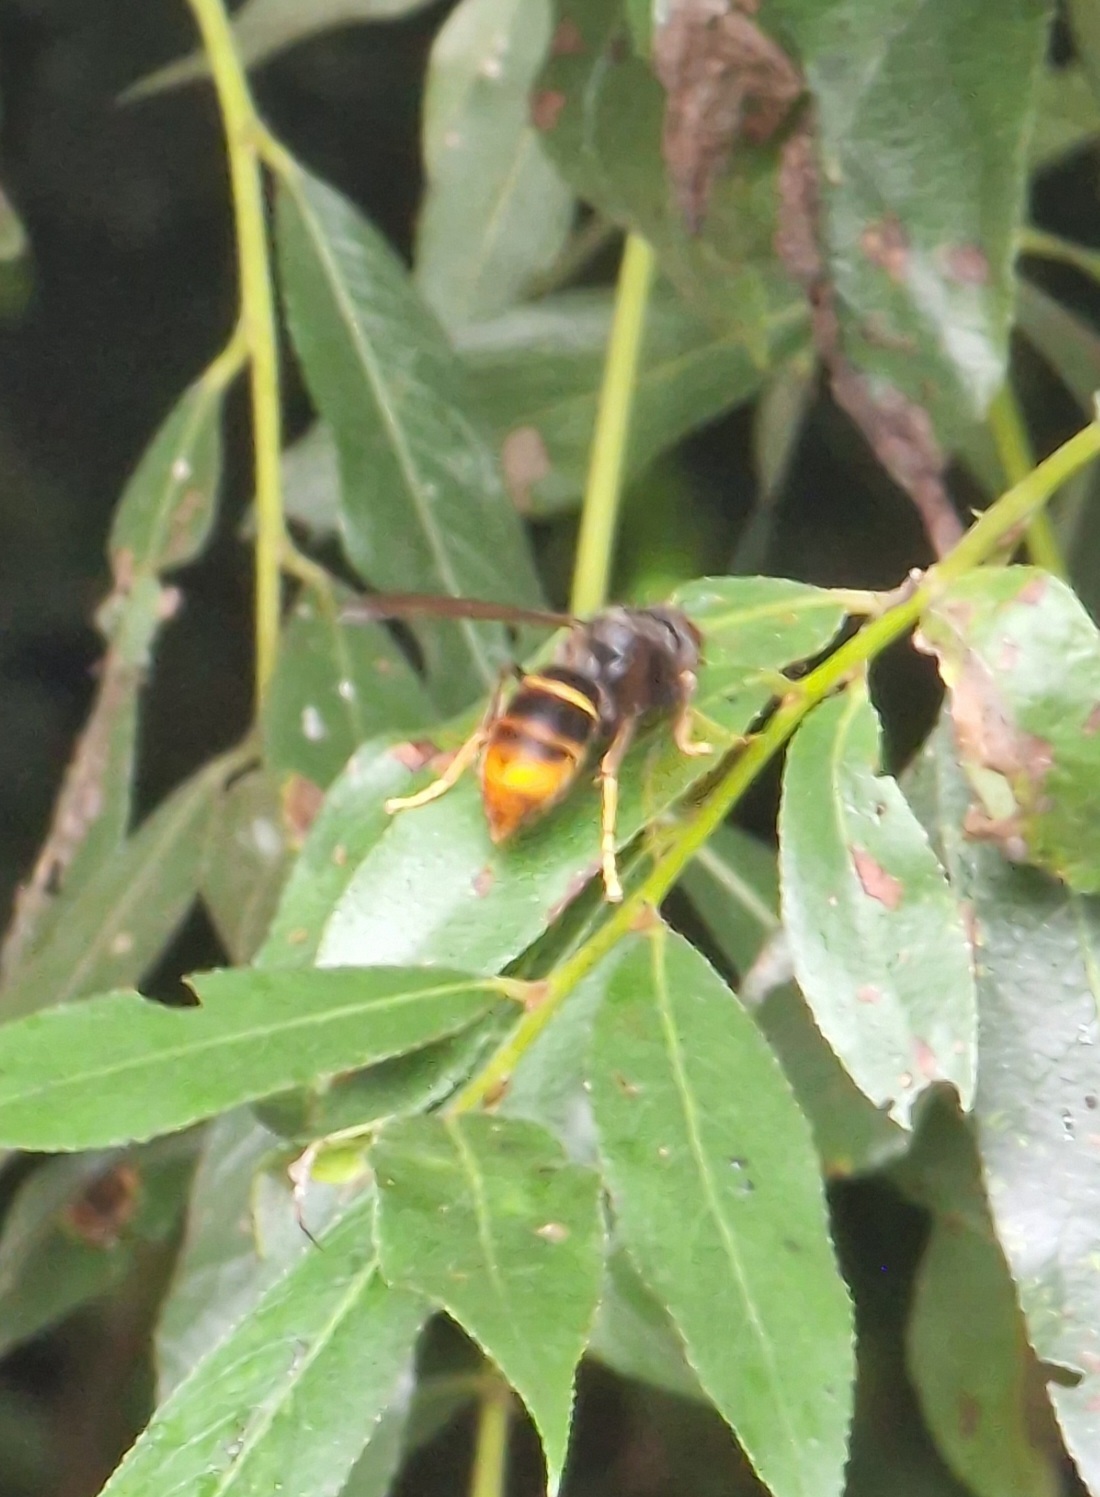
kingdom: Animalia
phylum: Arthropoda
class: Insecta
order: Hymenoptera
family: Vespidae
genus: Vespa
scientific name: Vespa velutina
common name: Asian hornet
